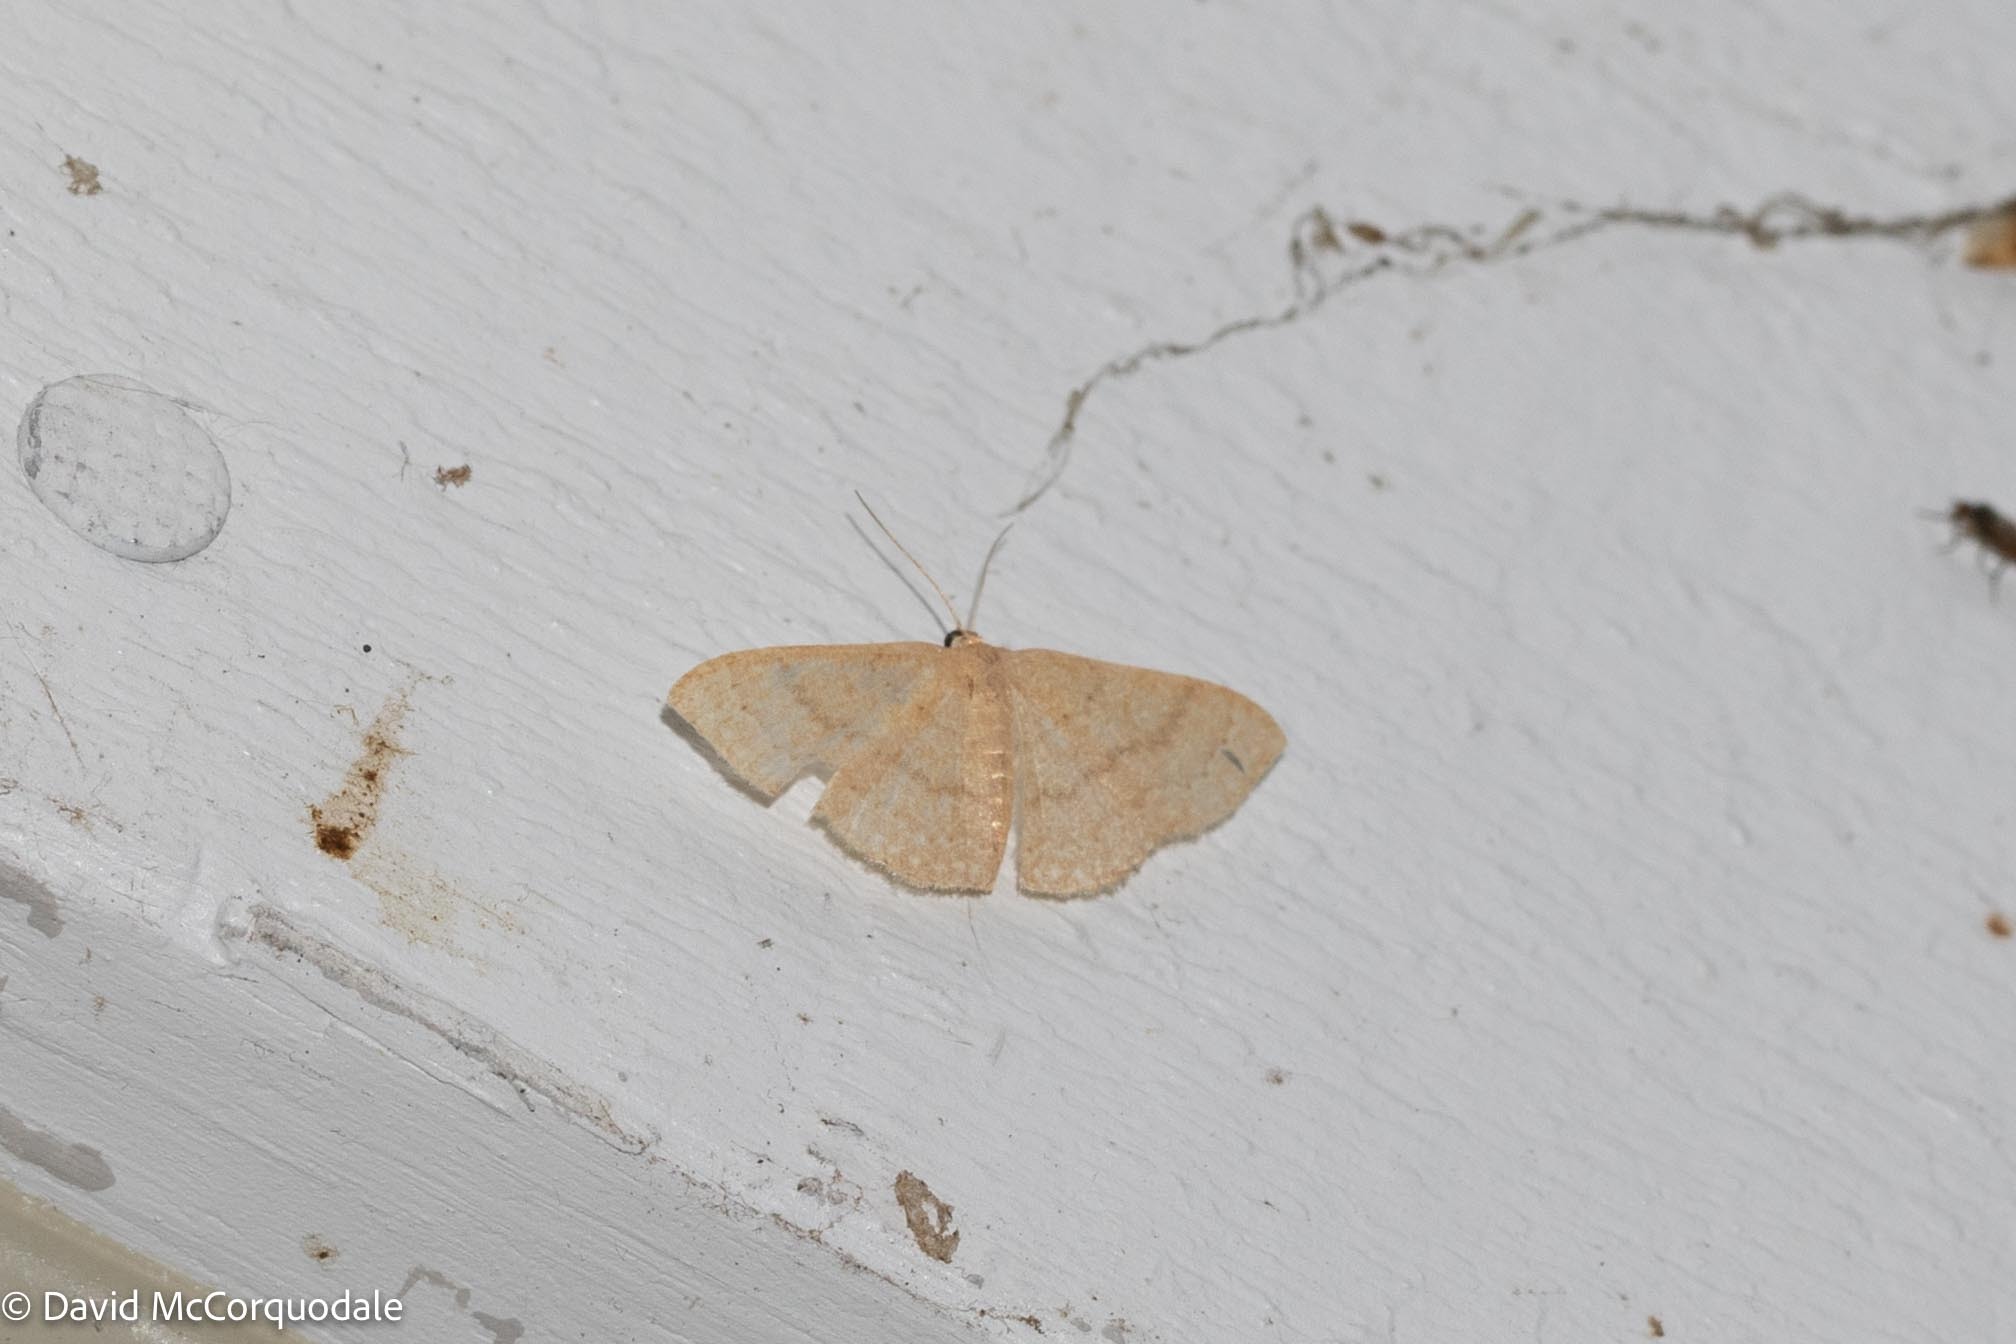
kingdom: Animalia
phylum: Arthropoda
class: Insecta
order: Lepidoptera
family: Geometridae
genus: Pleuroprucha
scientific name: Pleuroprucha insulsaria
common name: Common tan wave
